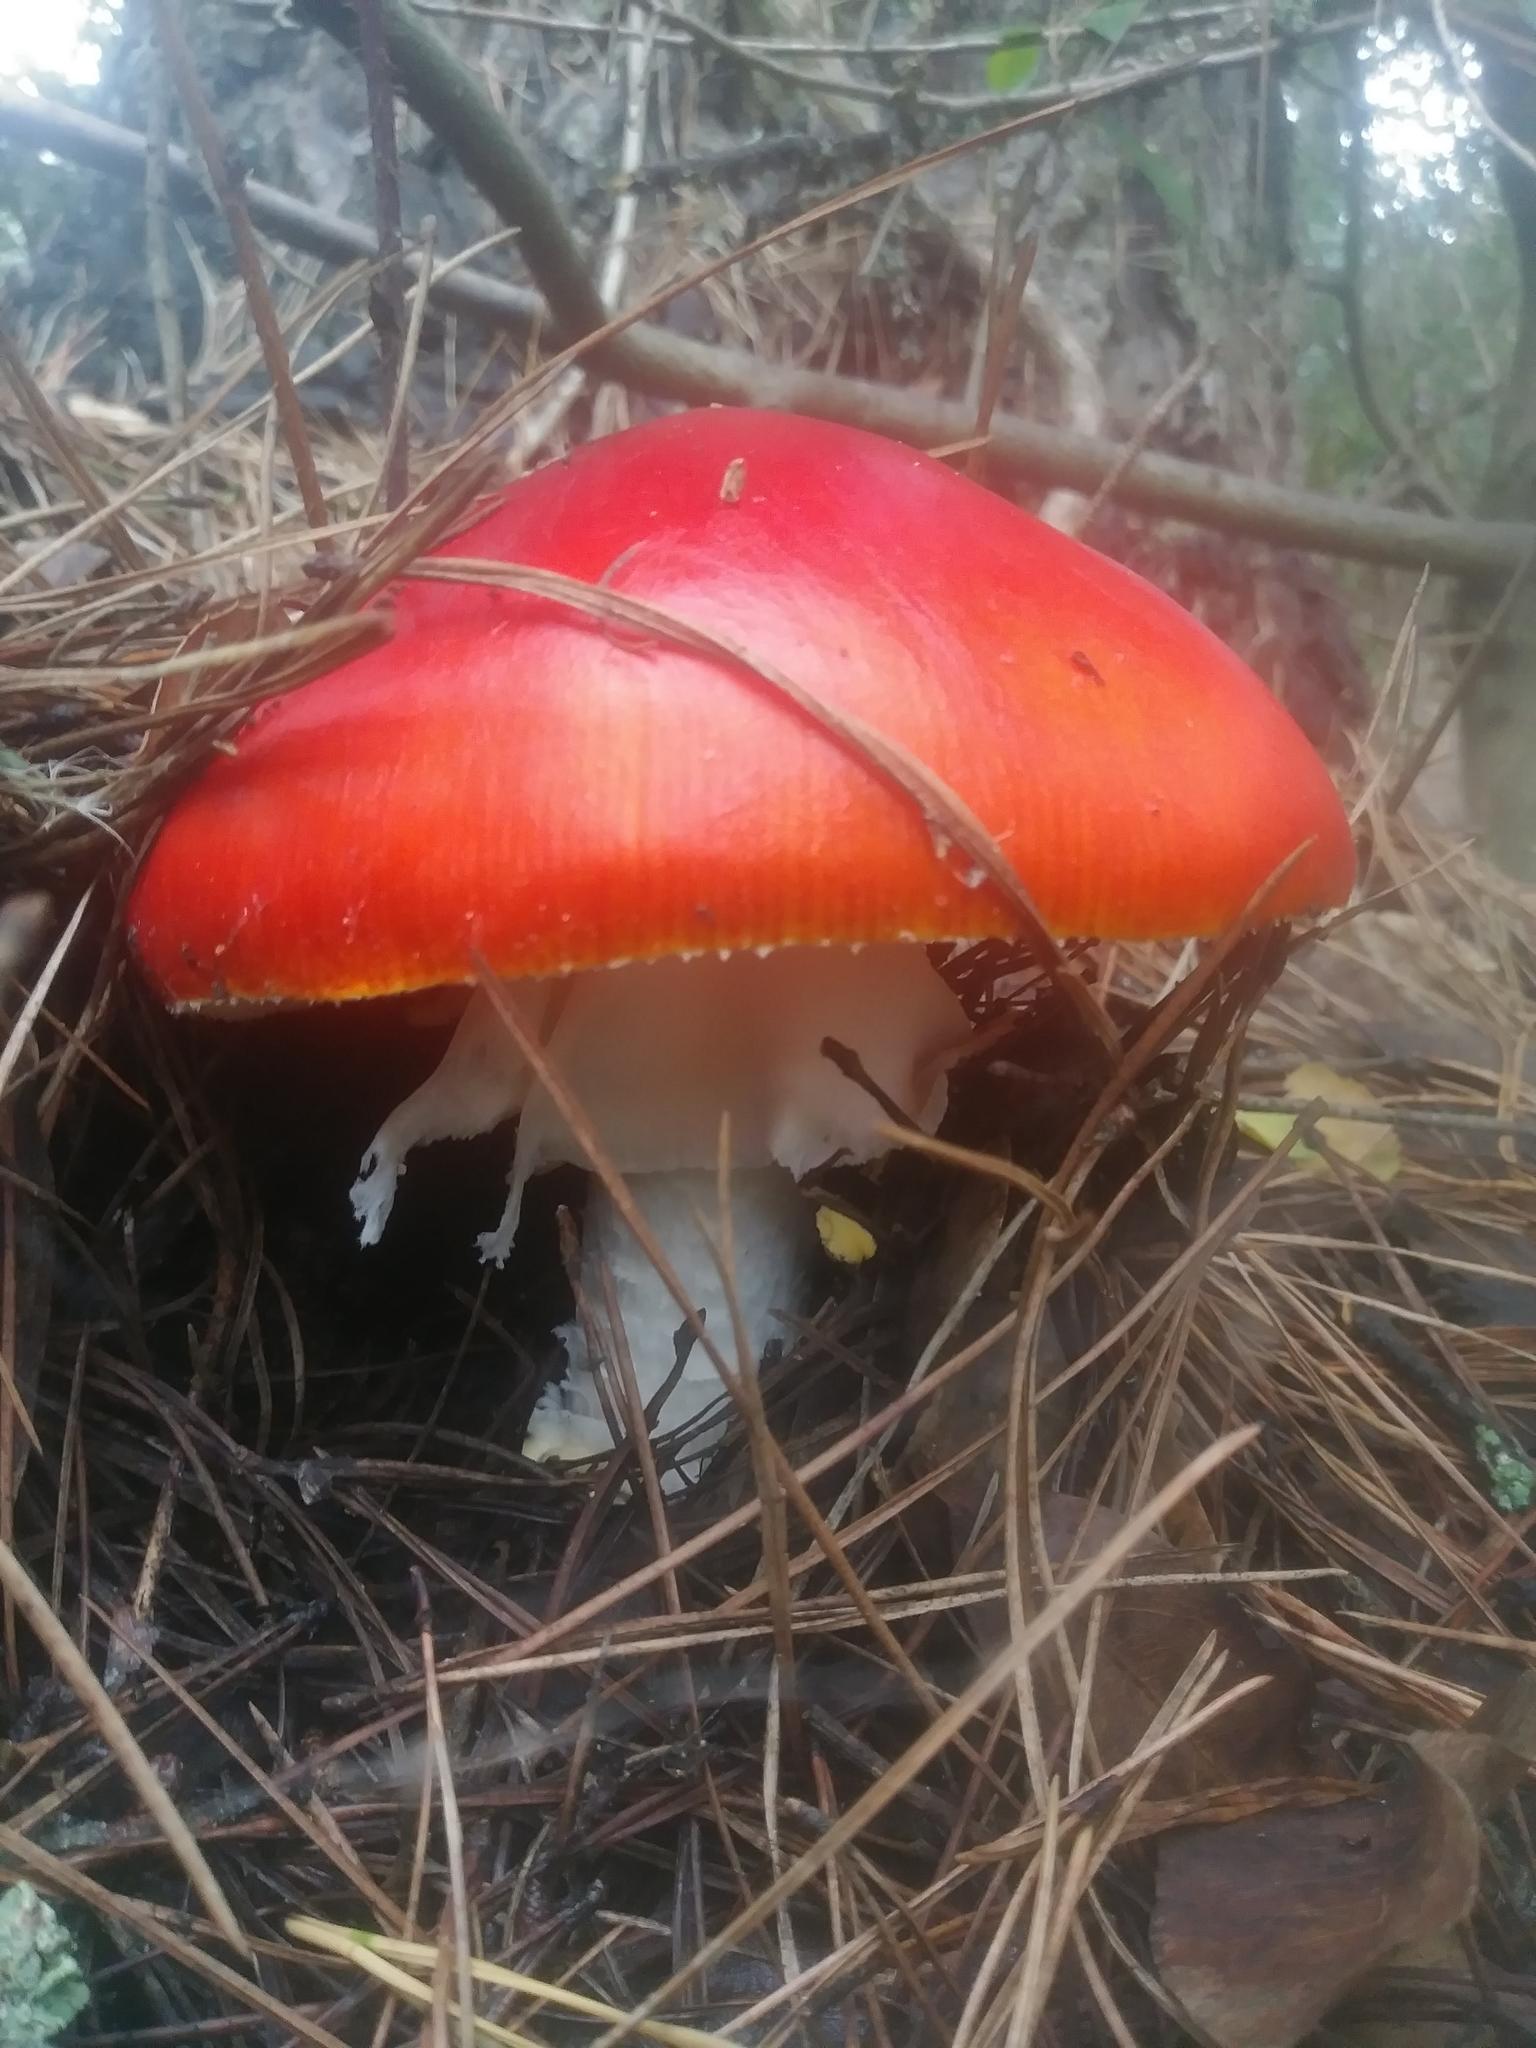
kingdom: Fungi
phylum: Basidiomycota
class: Agaricomycetes
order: Agaricales
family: Amanitaceae
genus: Amanita
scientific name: Amanita muscaria
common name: Fly agaric
